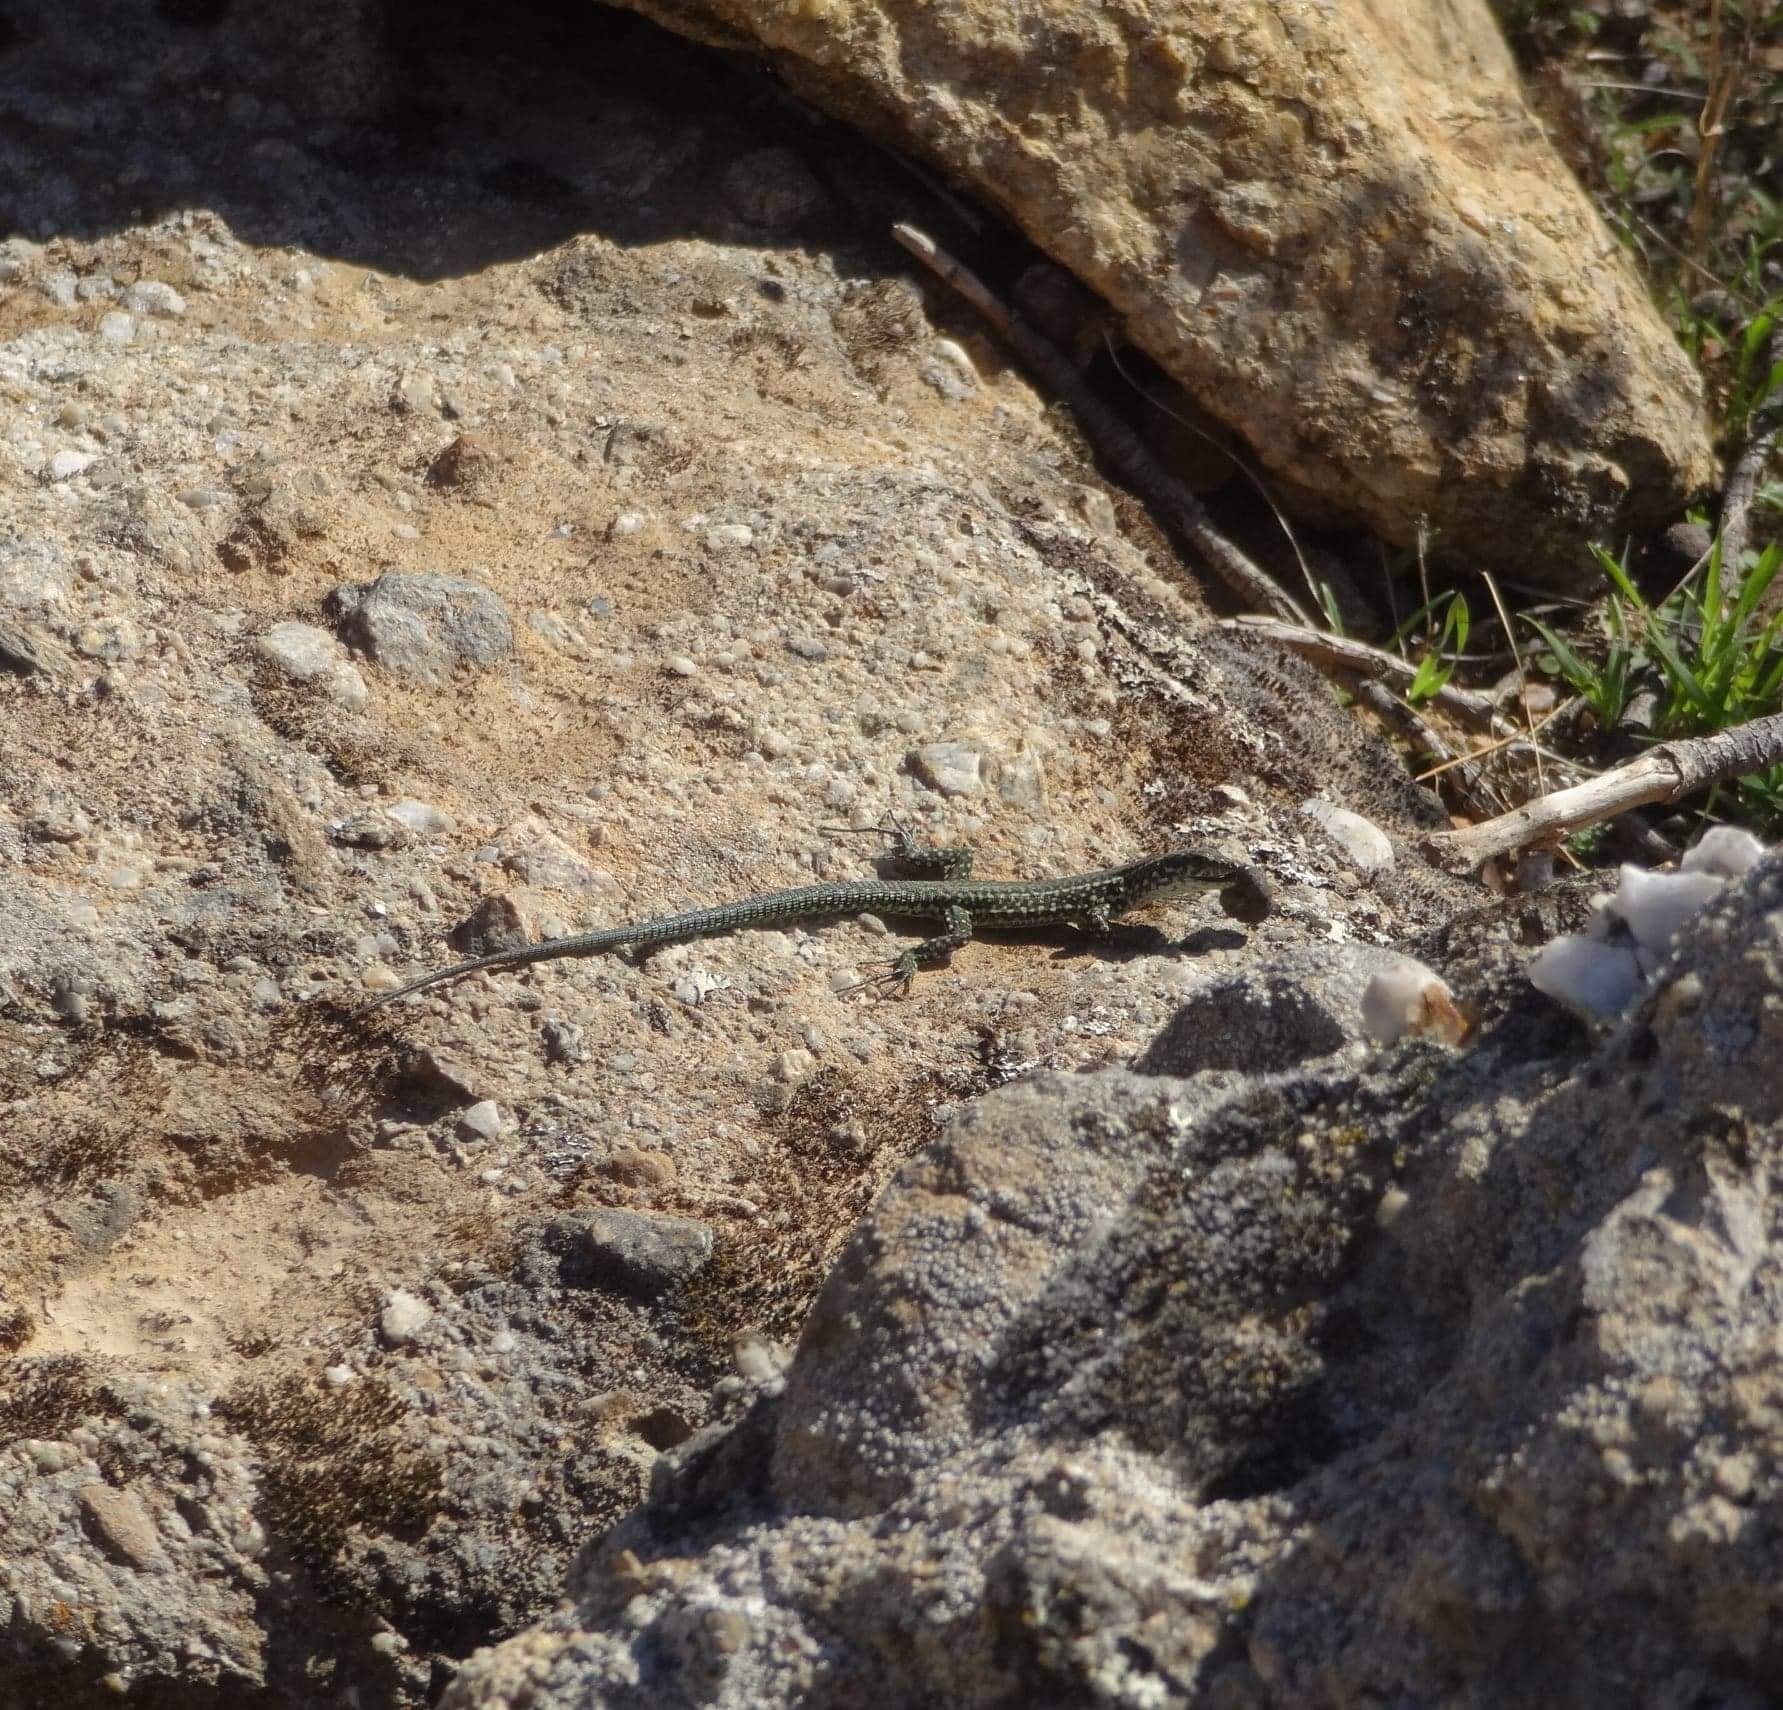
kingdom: Animalia
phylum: Chordata
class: Squamata
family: Lacertidae
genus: Podarcis
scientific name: Podarcis tiliguerta
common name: Tyrrhenian wall lizard
